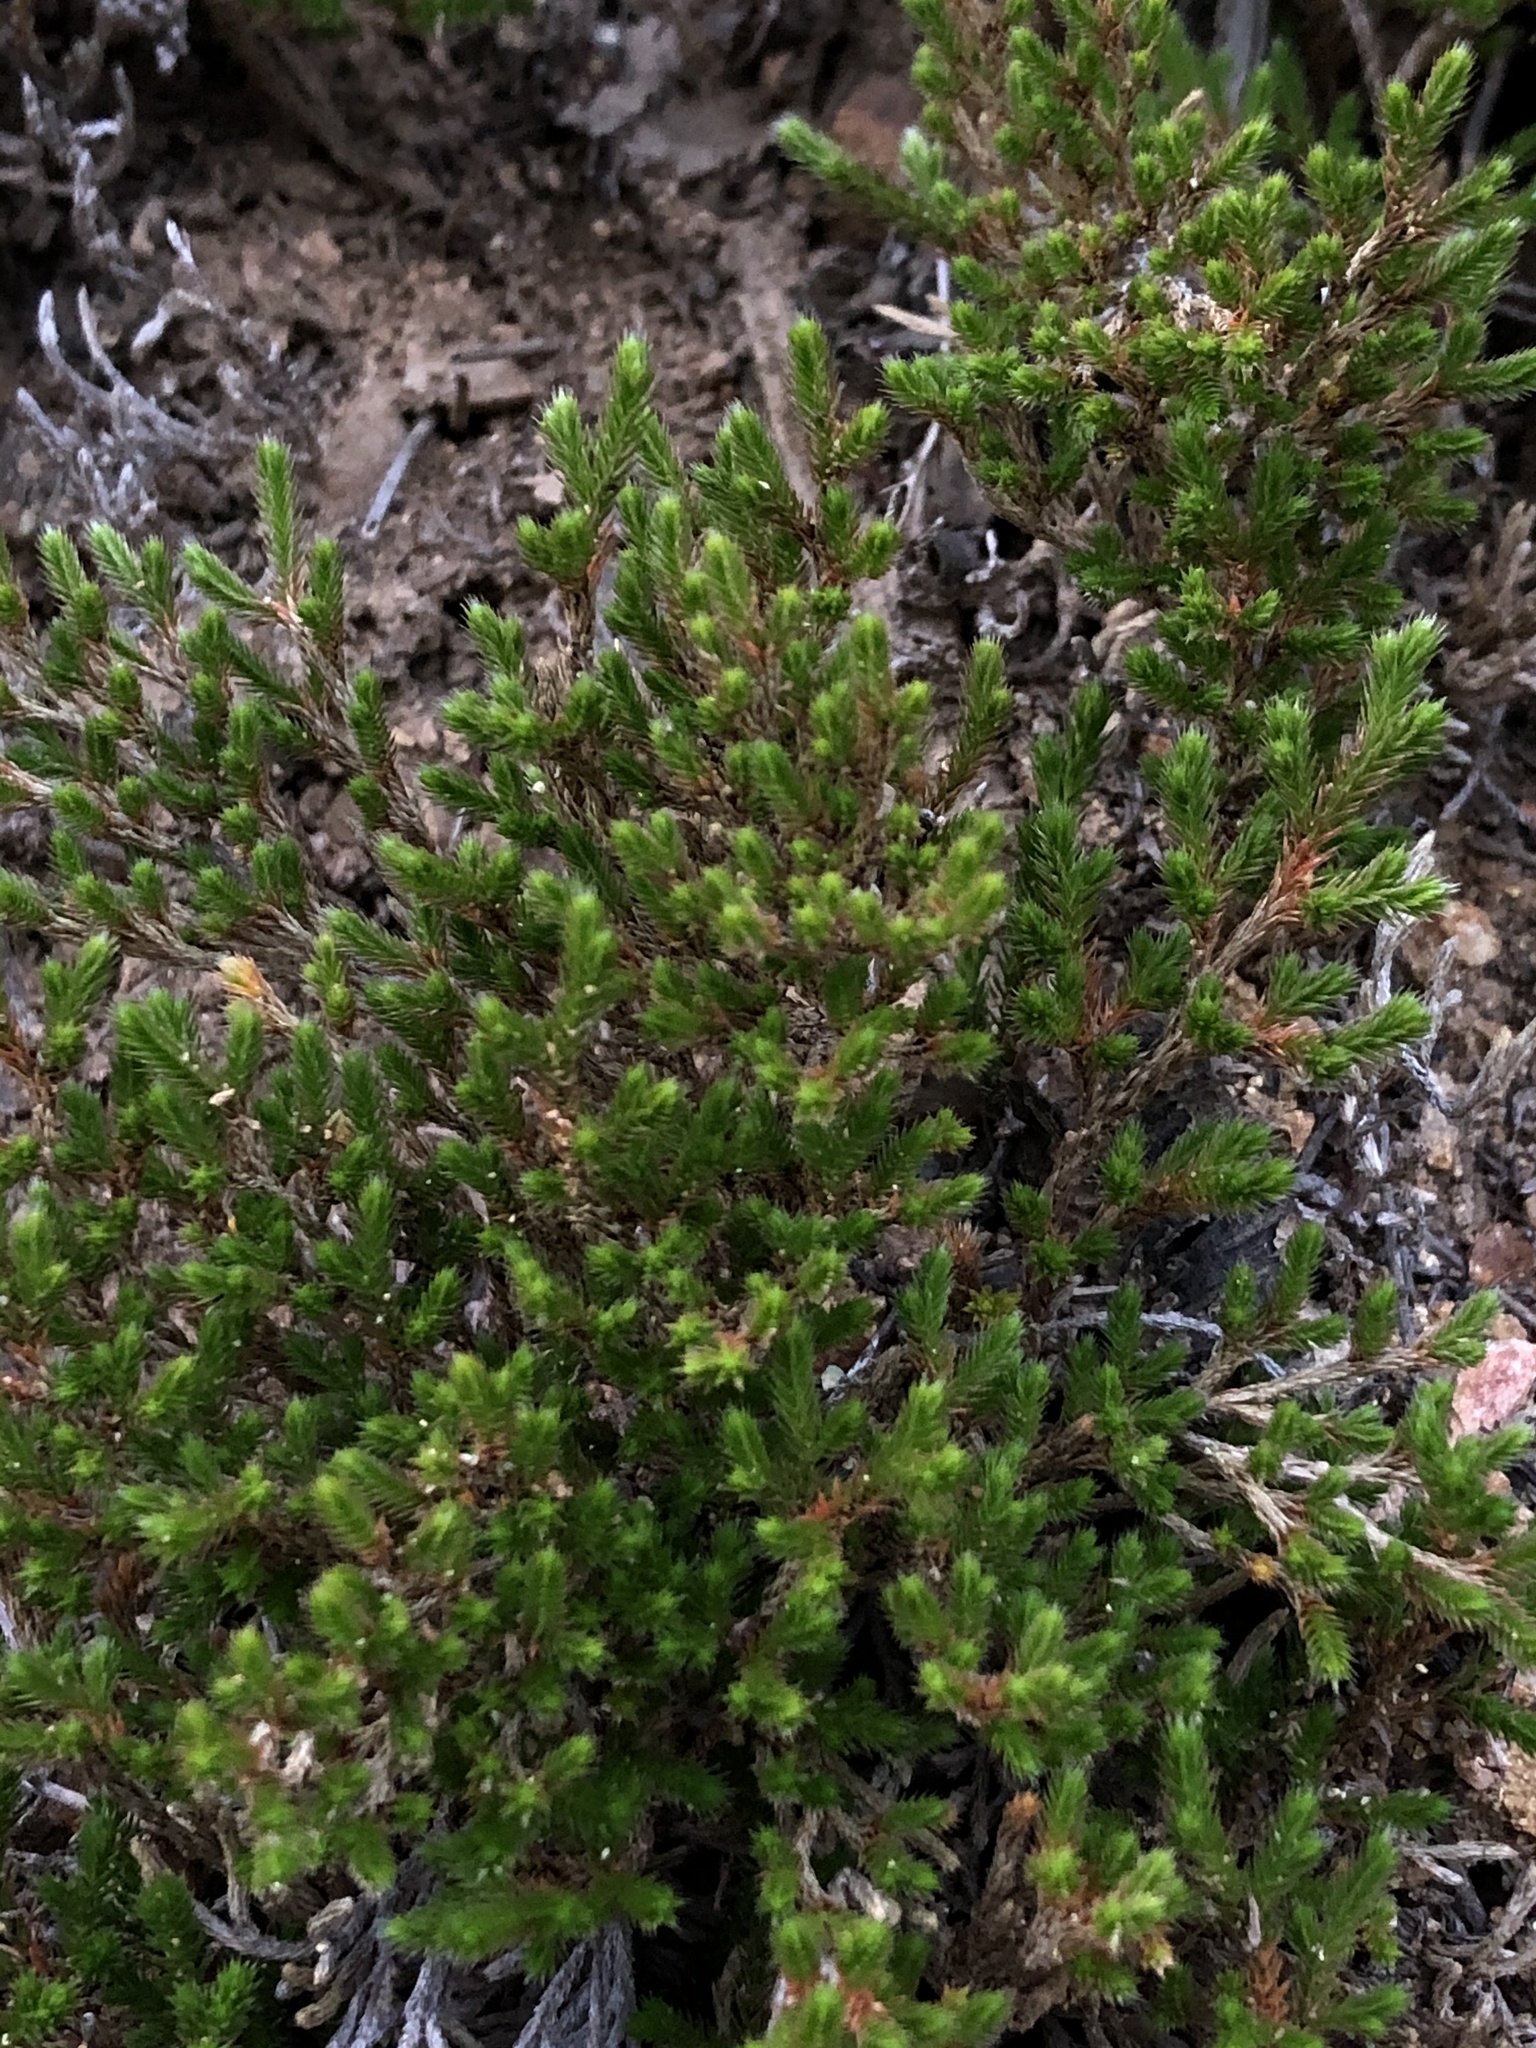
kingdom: Plantae
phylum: Tracheophyta
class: Lycopodiopsida
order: Selaginellales
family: Selaginellaceae
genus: Selaginella
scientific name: Selaginella bigelovii
